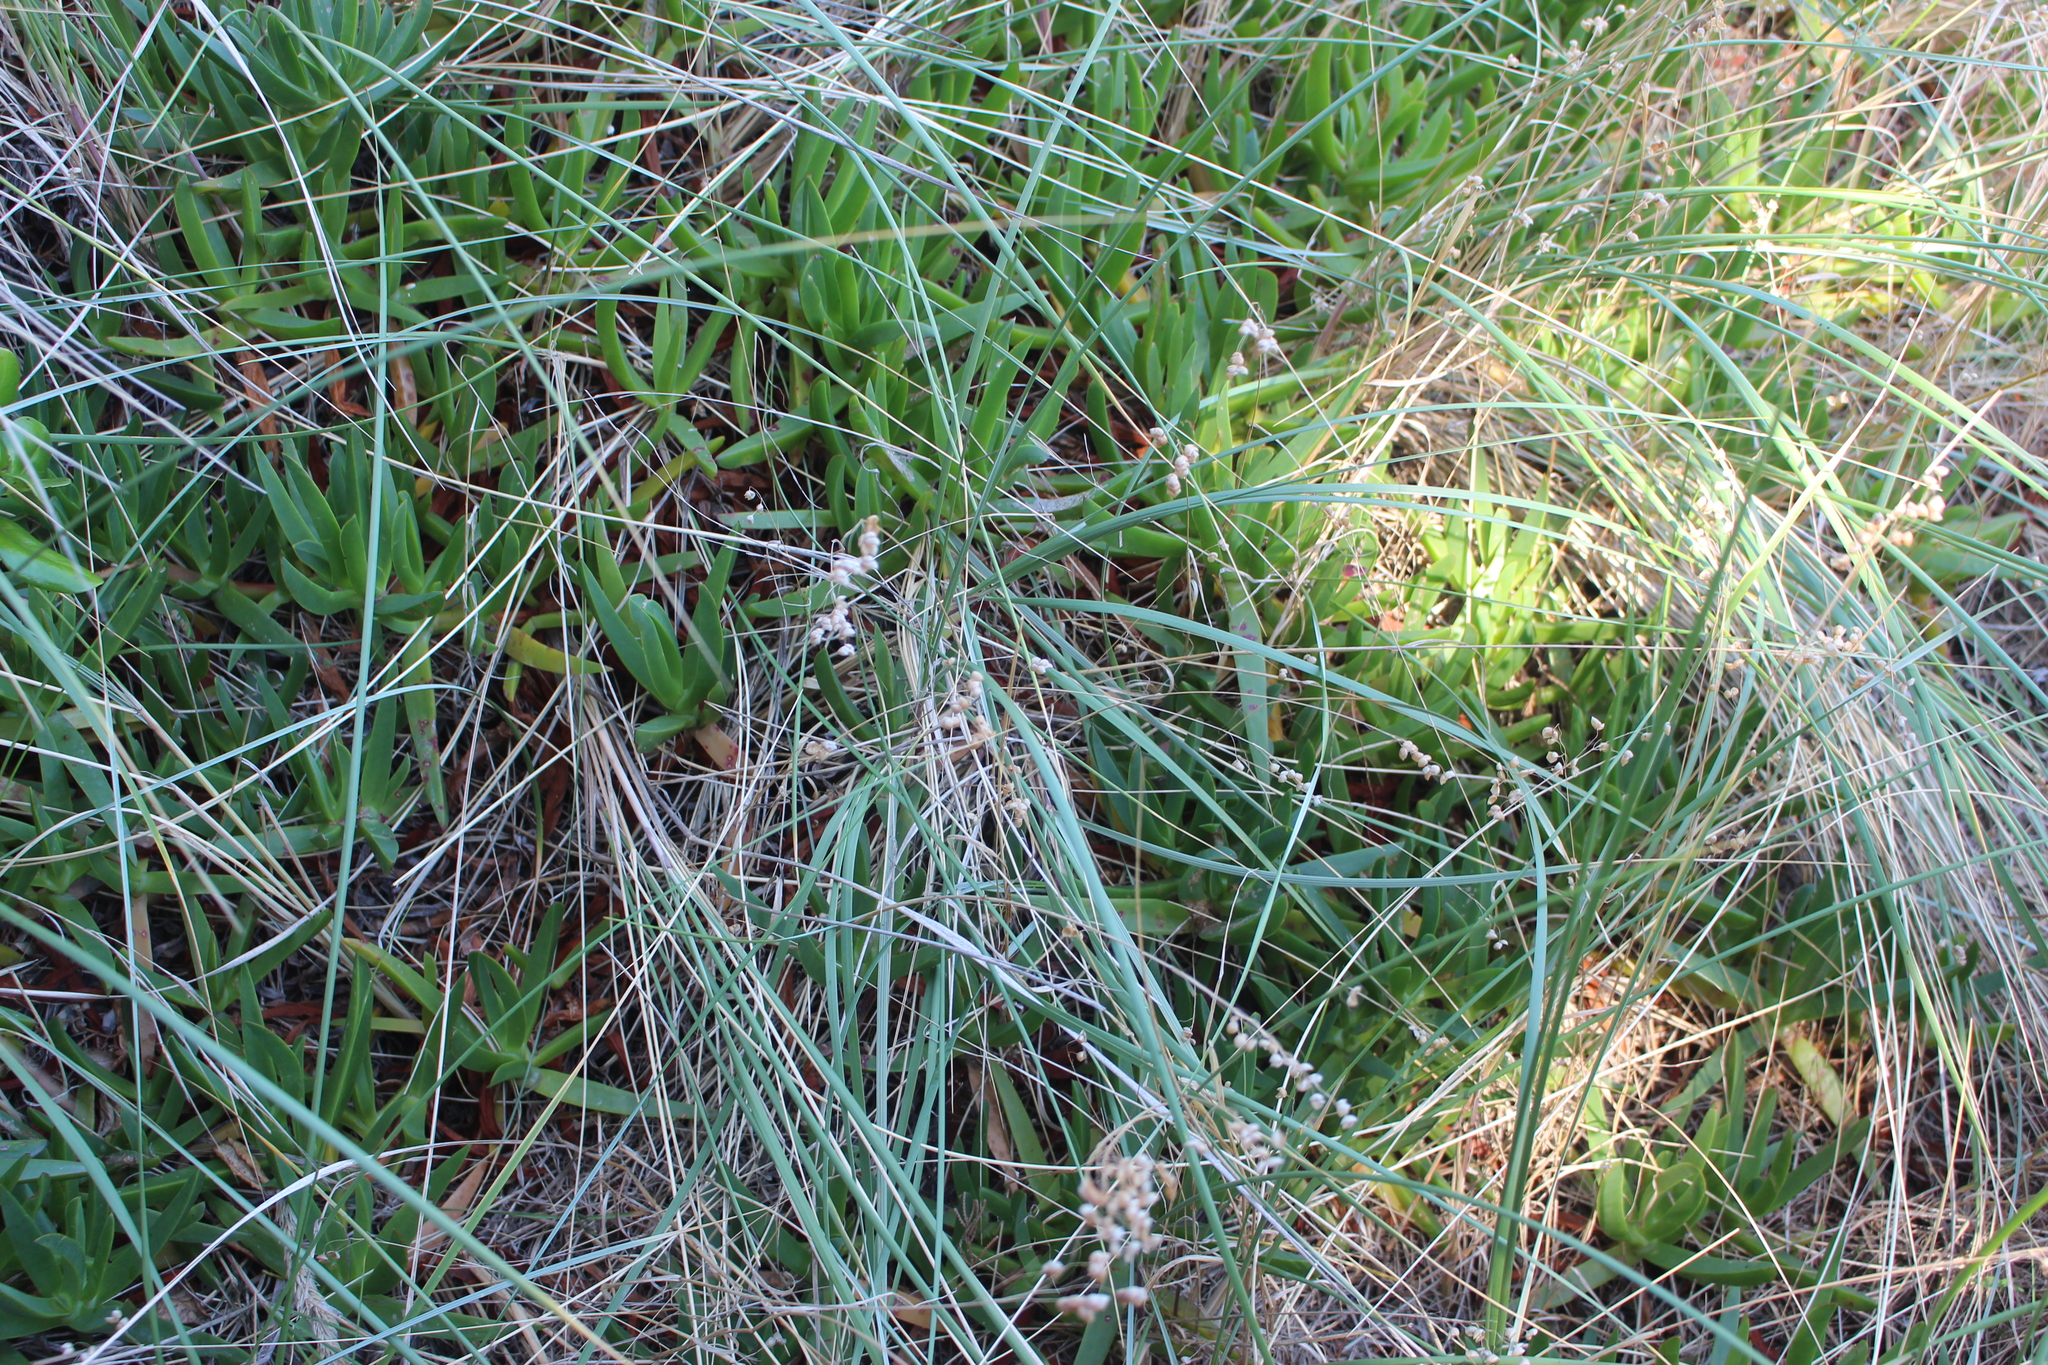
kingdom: Plantae
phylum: Tracheophyta
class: Liliopsida
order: Poales
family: Poaceae
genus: Briza
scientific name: Briza maxima
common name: Big quakinggrass
